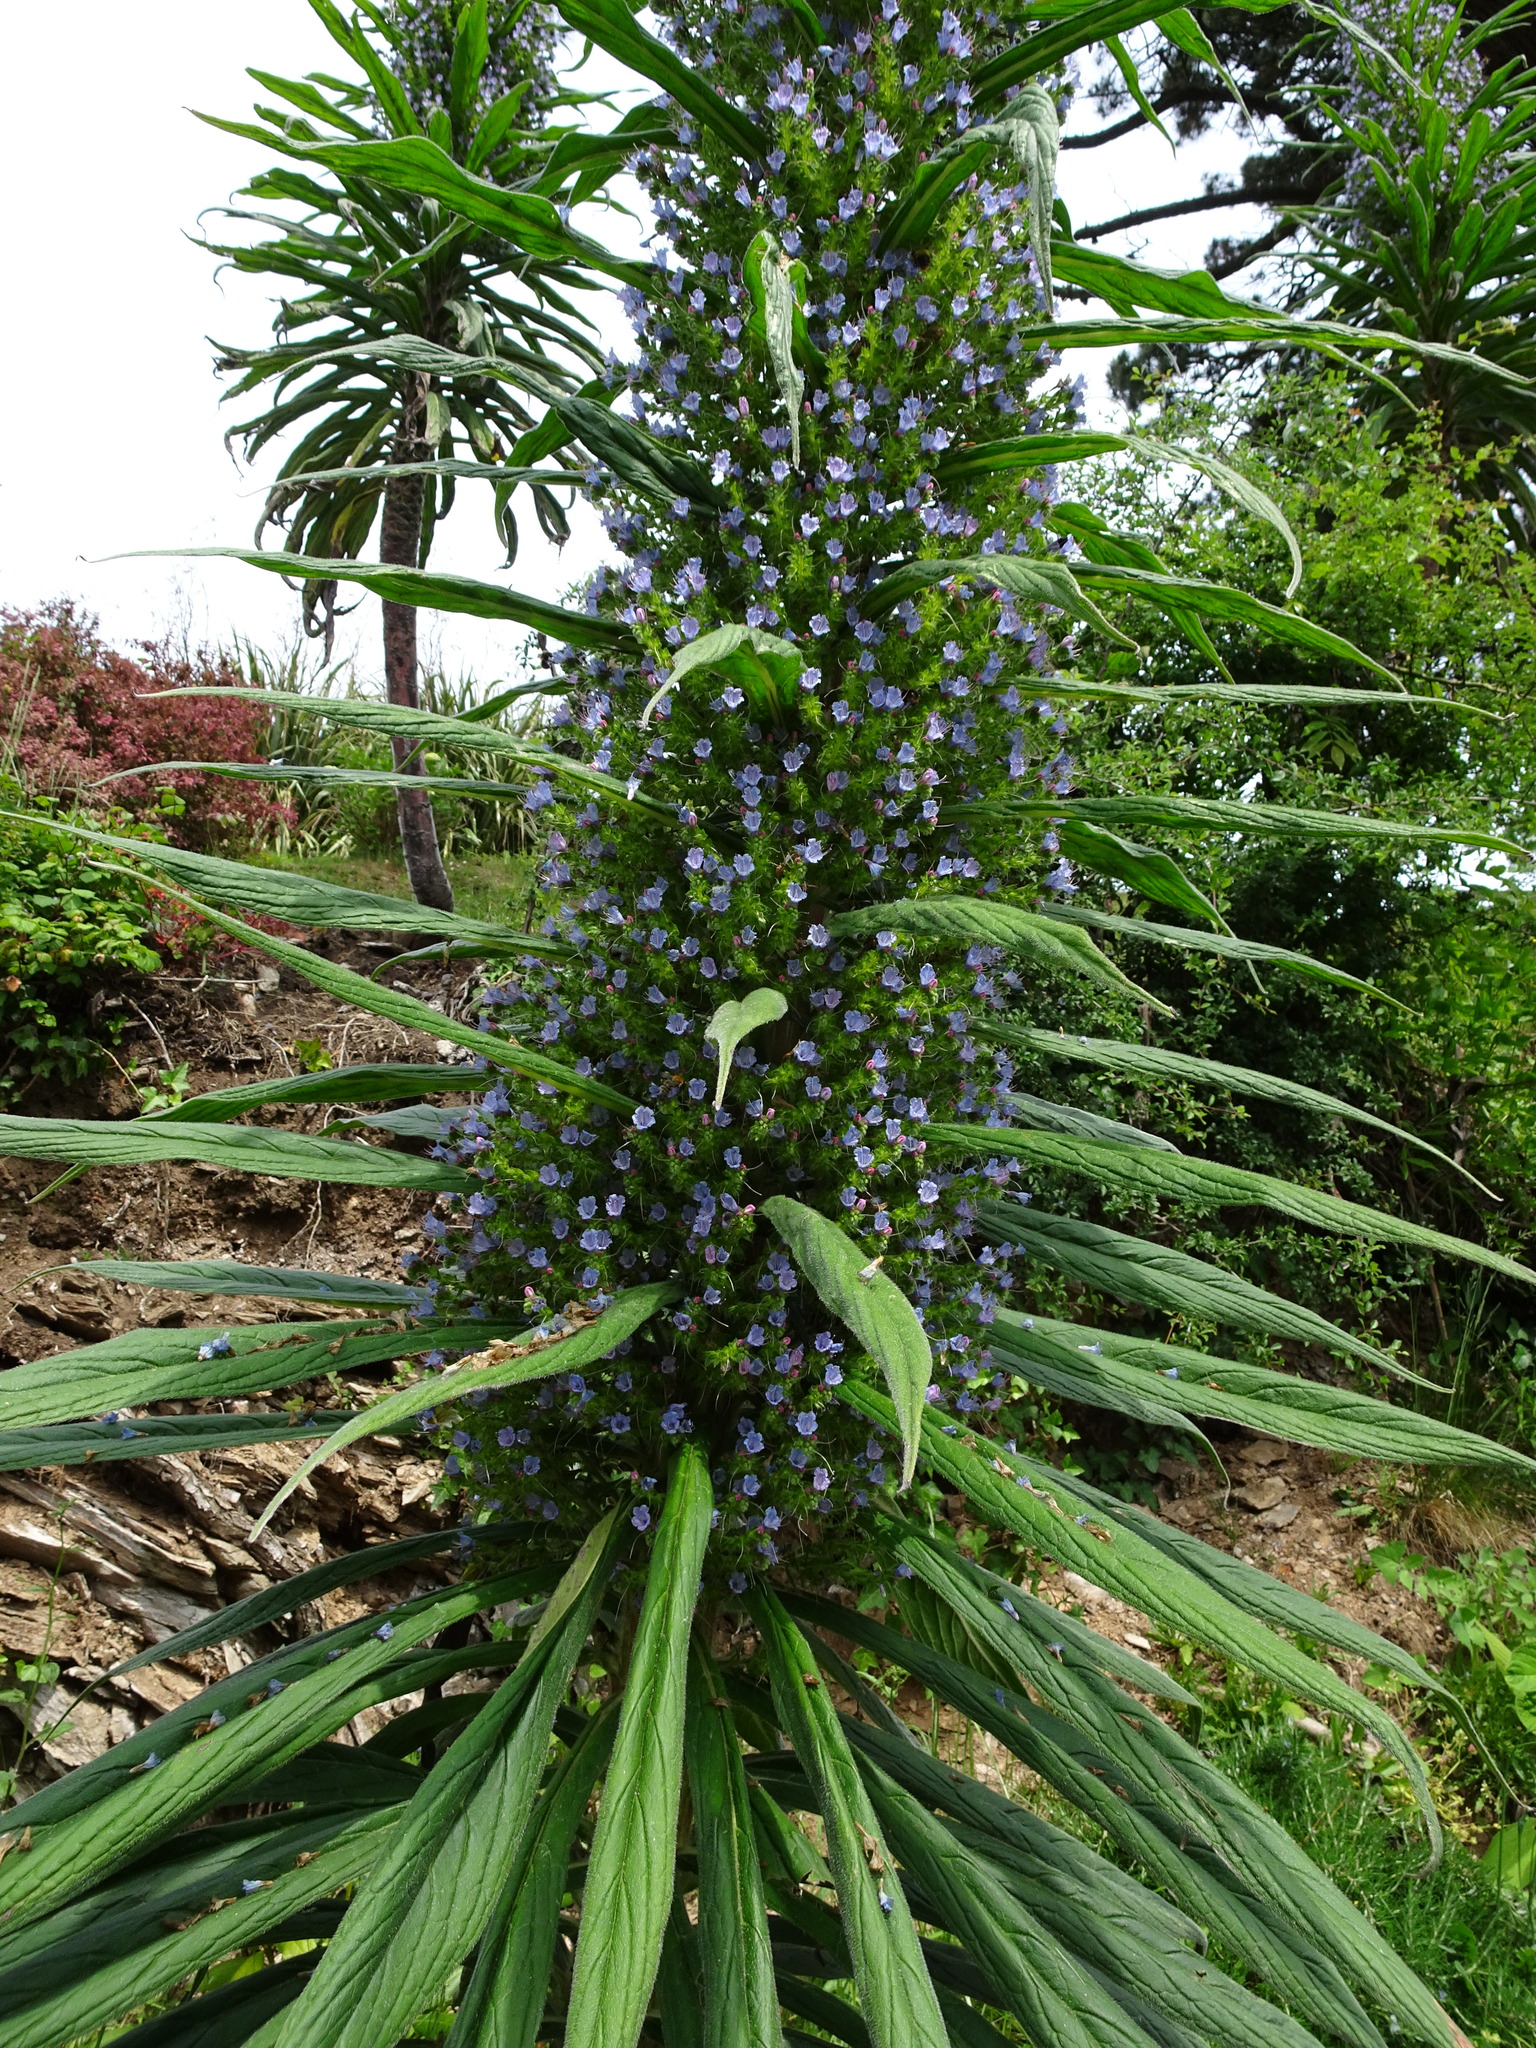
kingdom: Plantae
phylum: Tracheophyta
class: Magnoliopsida
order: Boraginales
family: Boraginaceae
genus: Echium
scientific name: Echium pininana
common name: Giant viper's-bugloss
